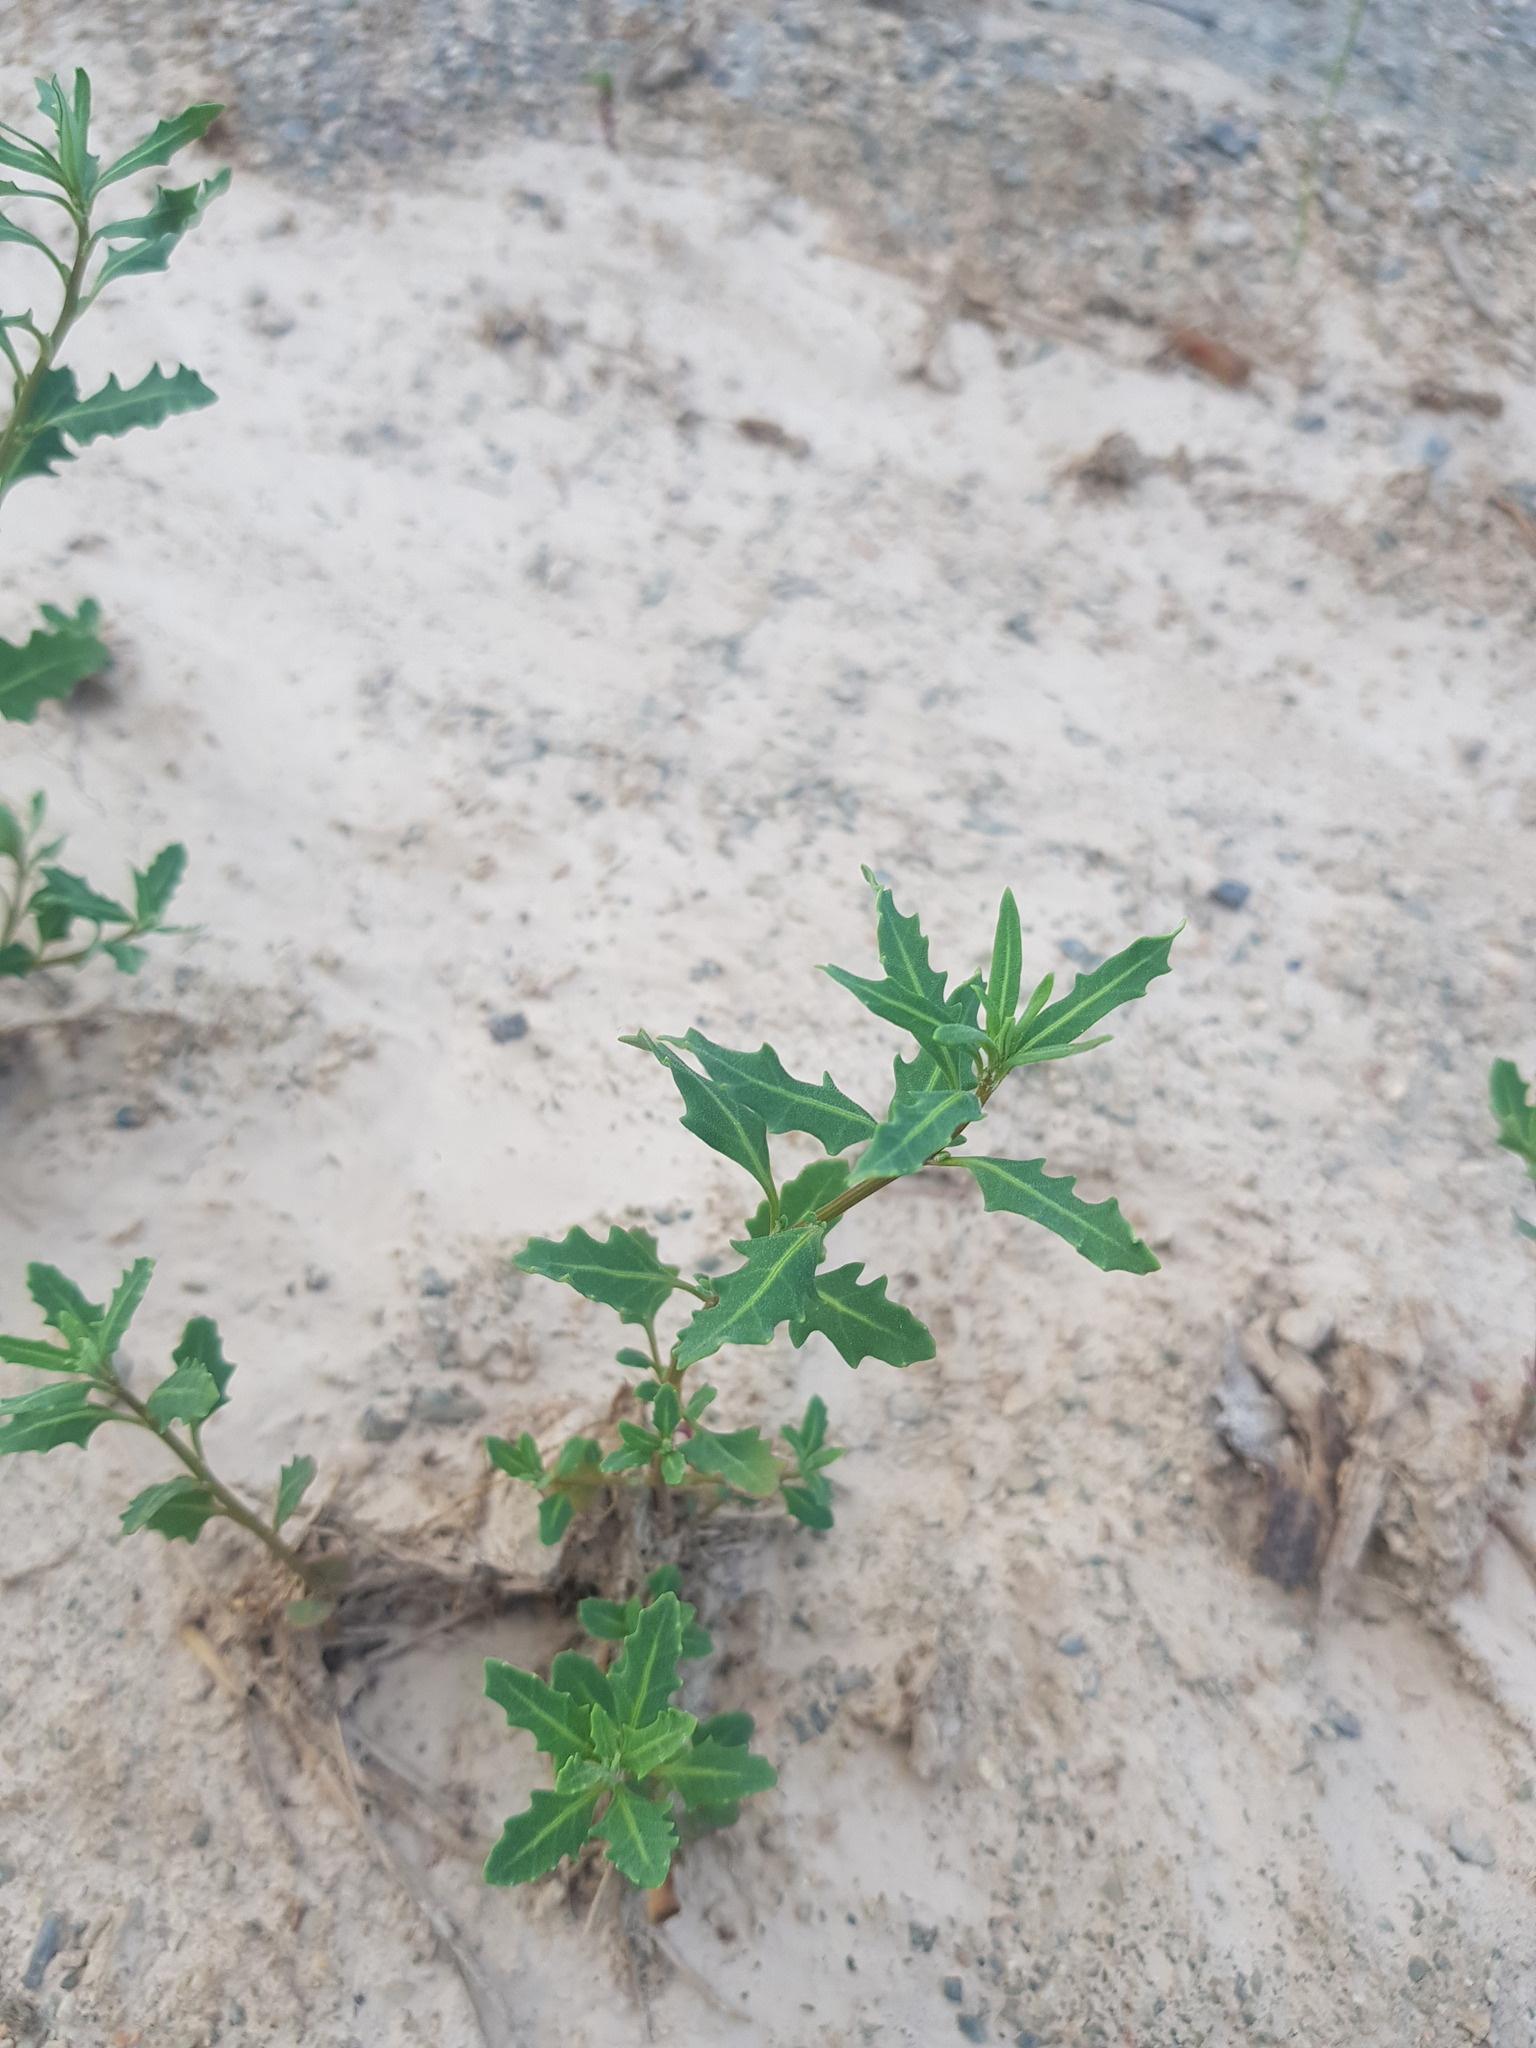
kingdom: Plantae
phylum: Tracheophyta
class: Magnoliopsida
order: Caryophyllales
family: Amaranthaceae
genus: Oxybasis
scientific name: Oxybasis glauca
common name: Glaucous goosefoot
